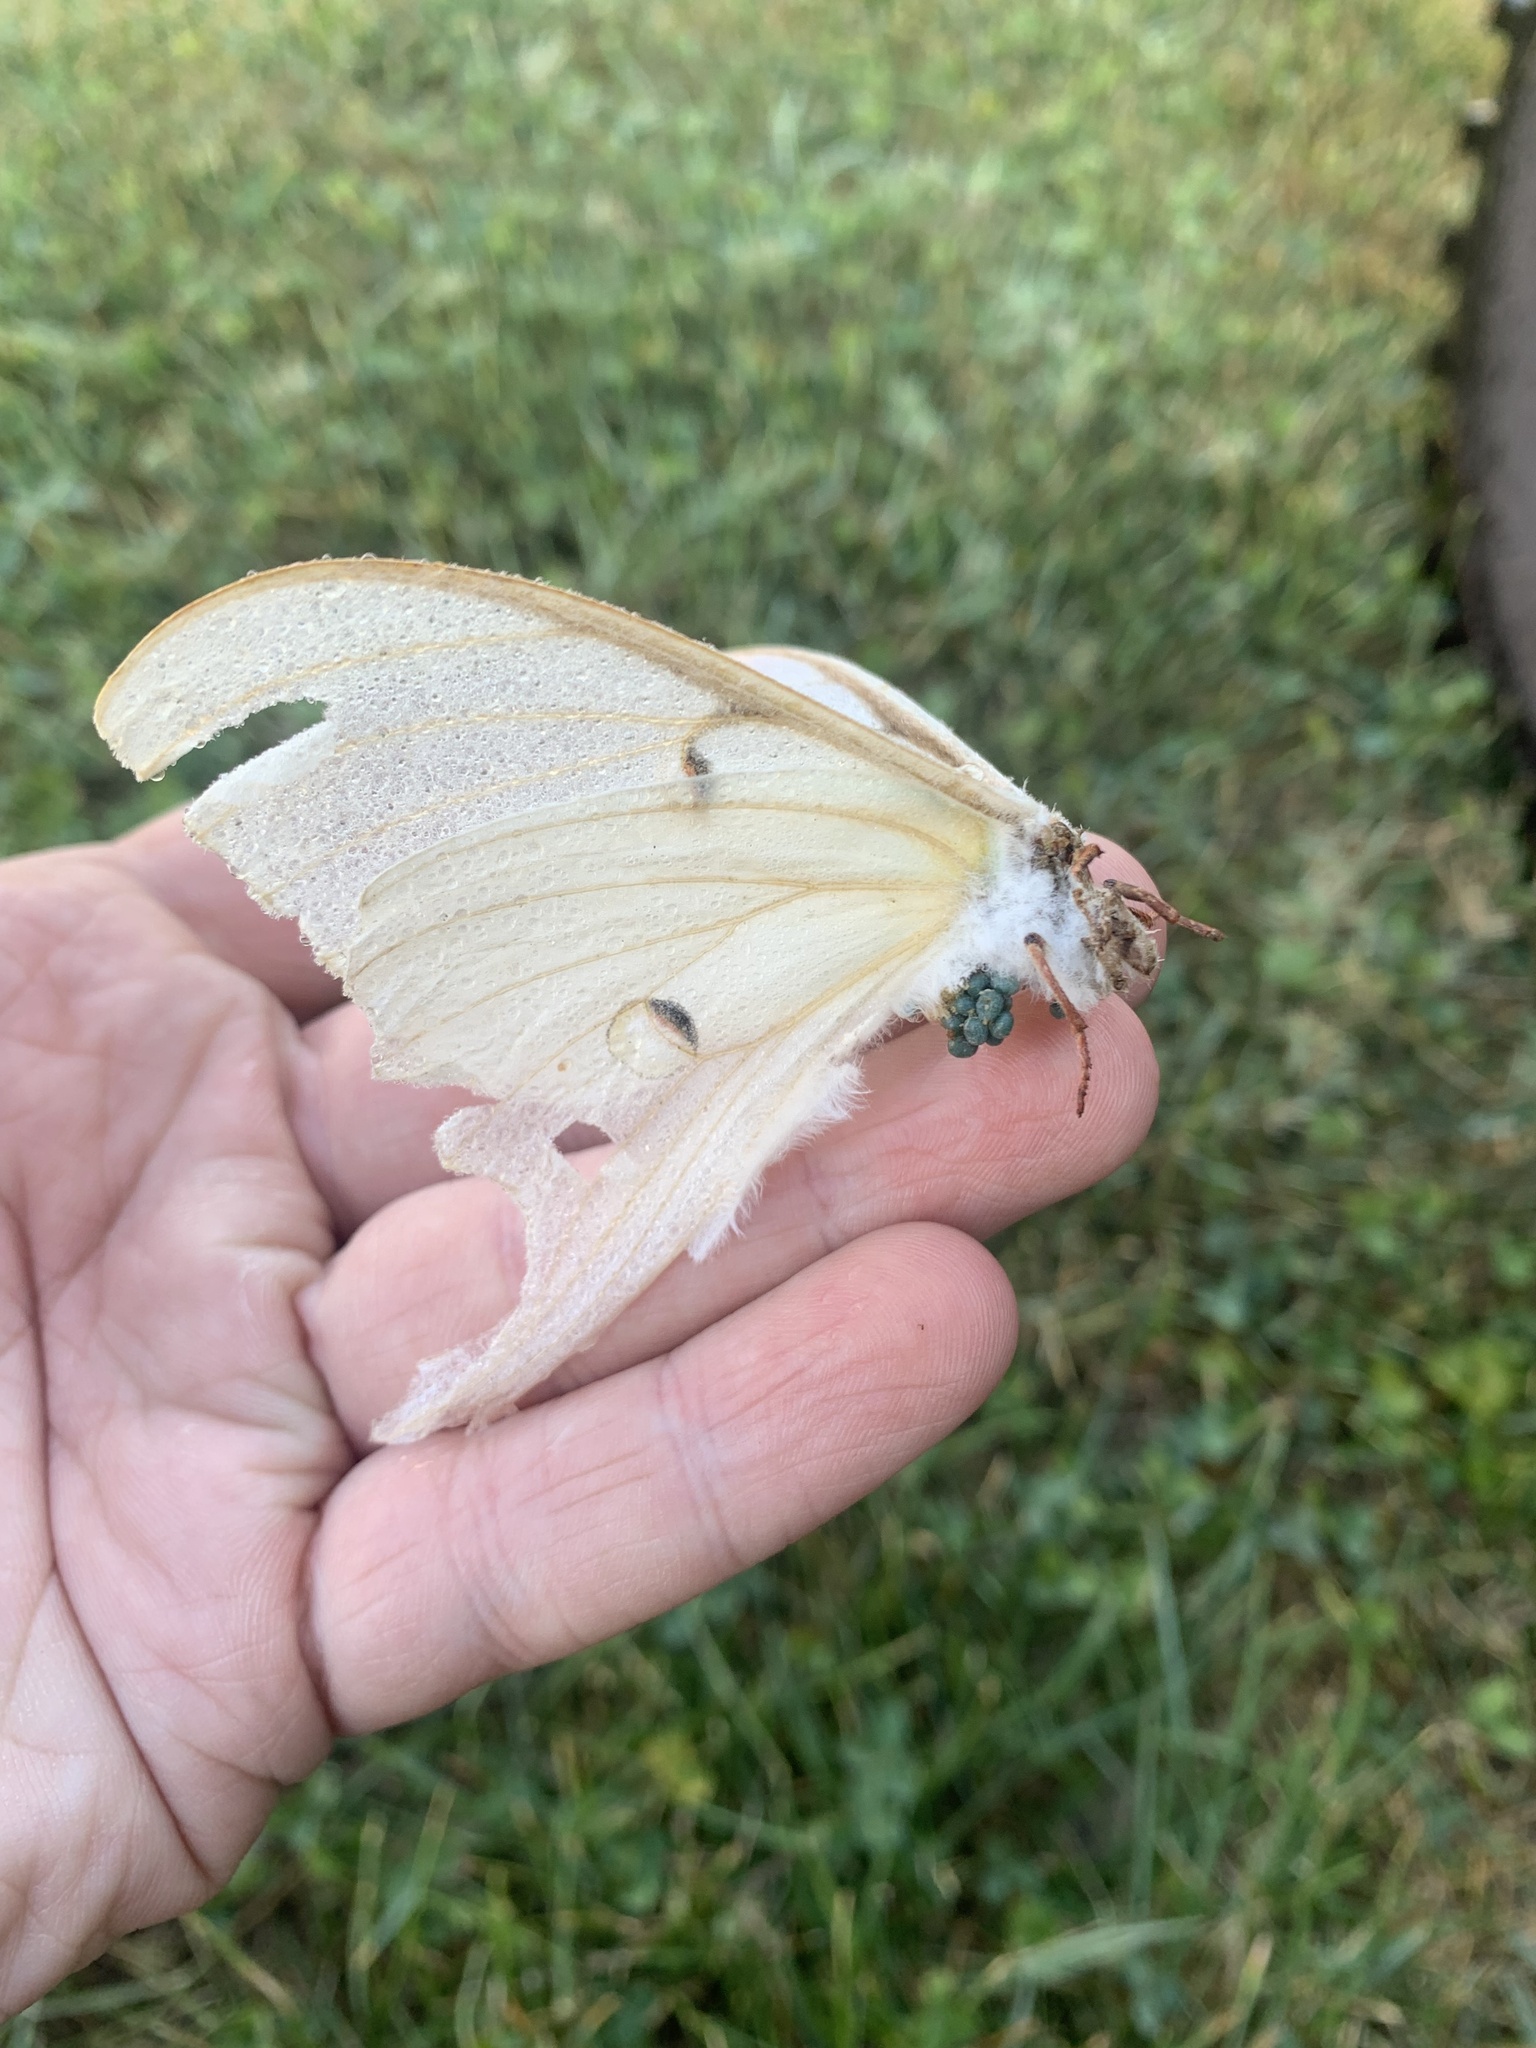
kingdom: Animalia
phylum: Arthropoda
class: Insecta
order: Lepidoptera
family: Saturniidae
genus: Actias
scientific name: Actias luna
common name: Luna moth
